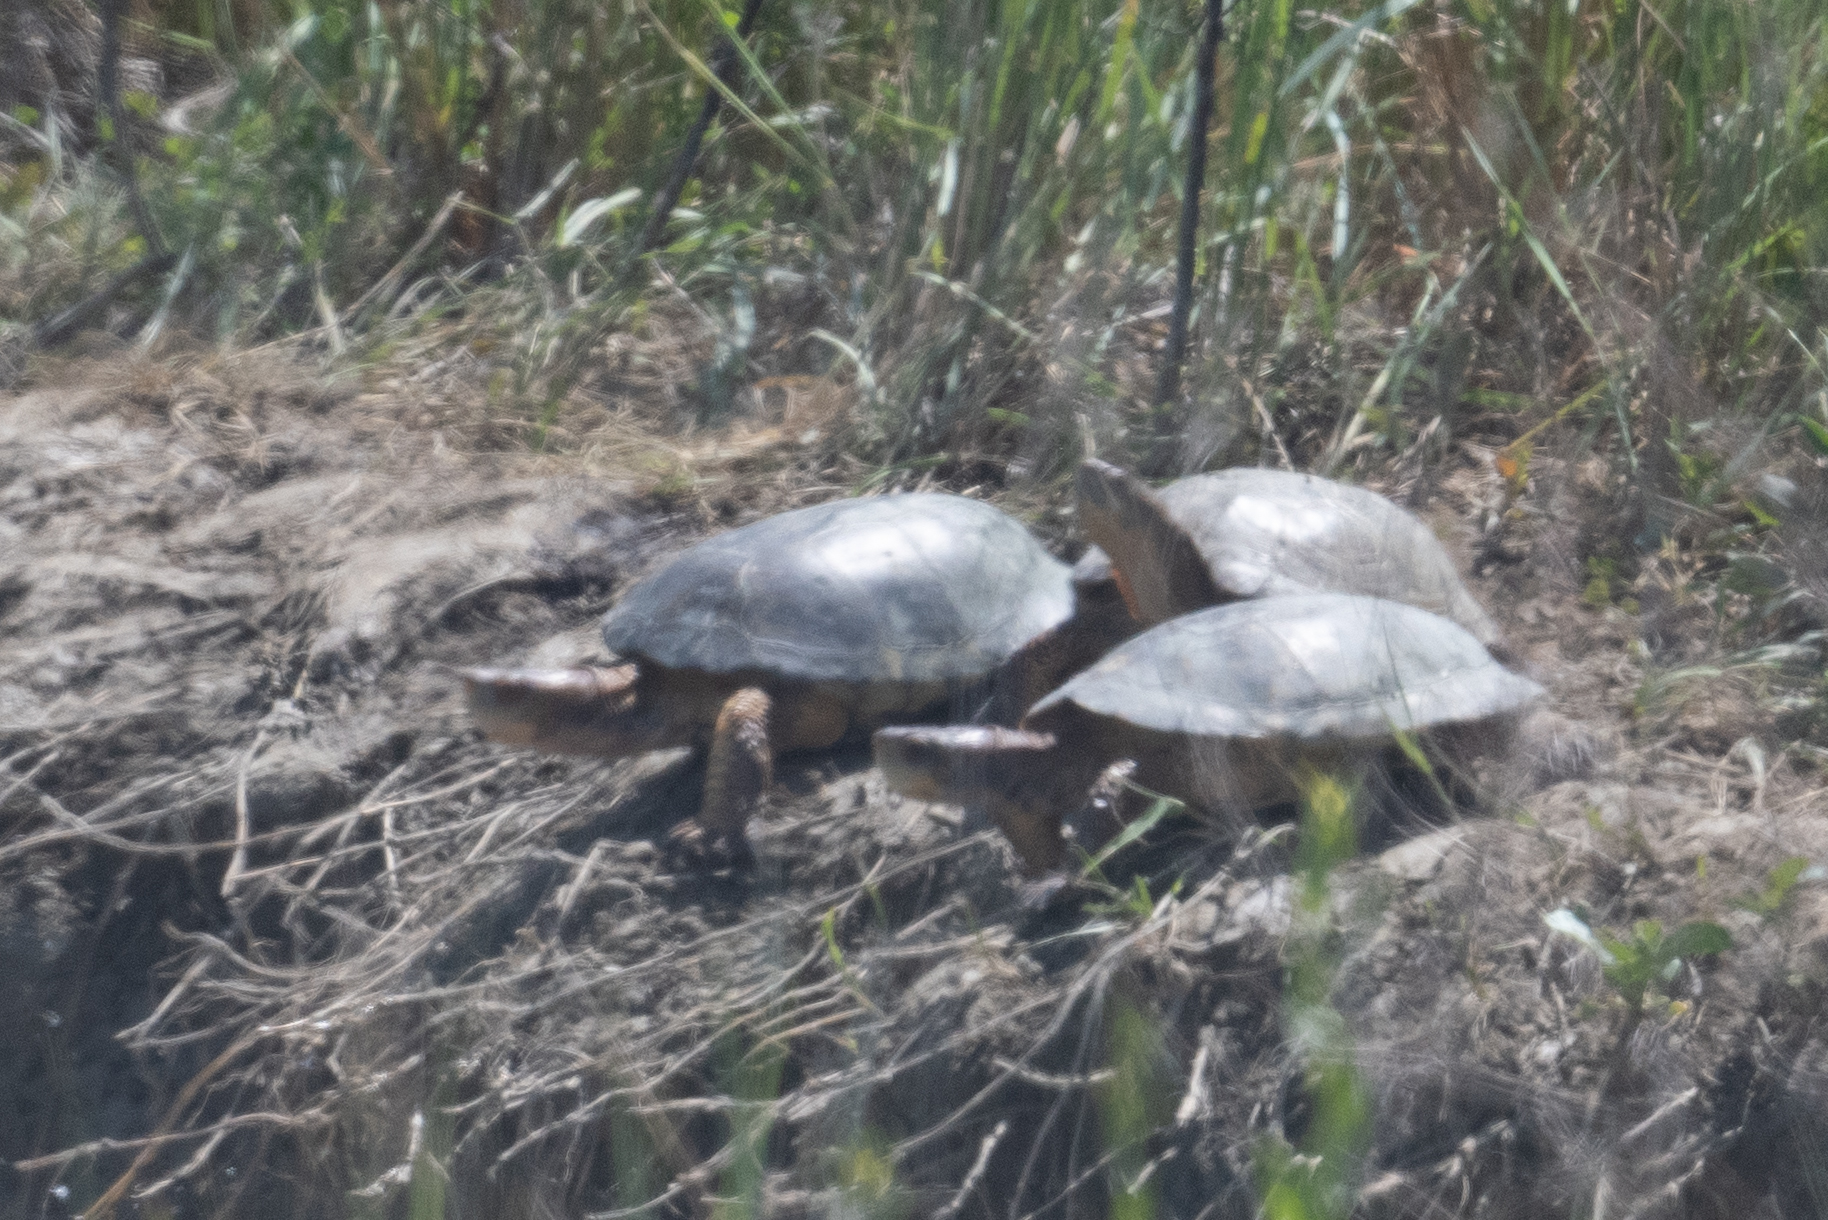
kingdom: Animalia
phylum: Chordata
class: Testudines
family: Emydidae
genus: Actinemys
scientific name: Actinemys marmorata
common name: Western pond turtle
